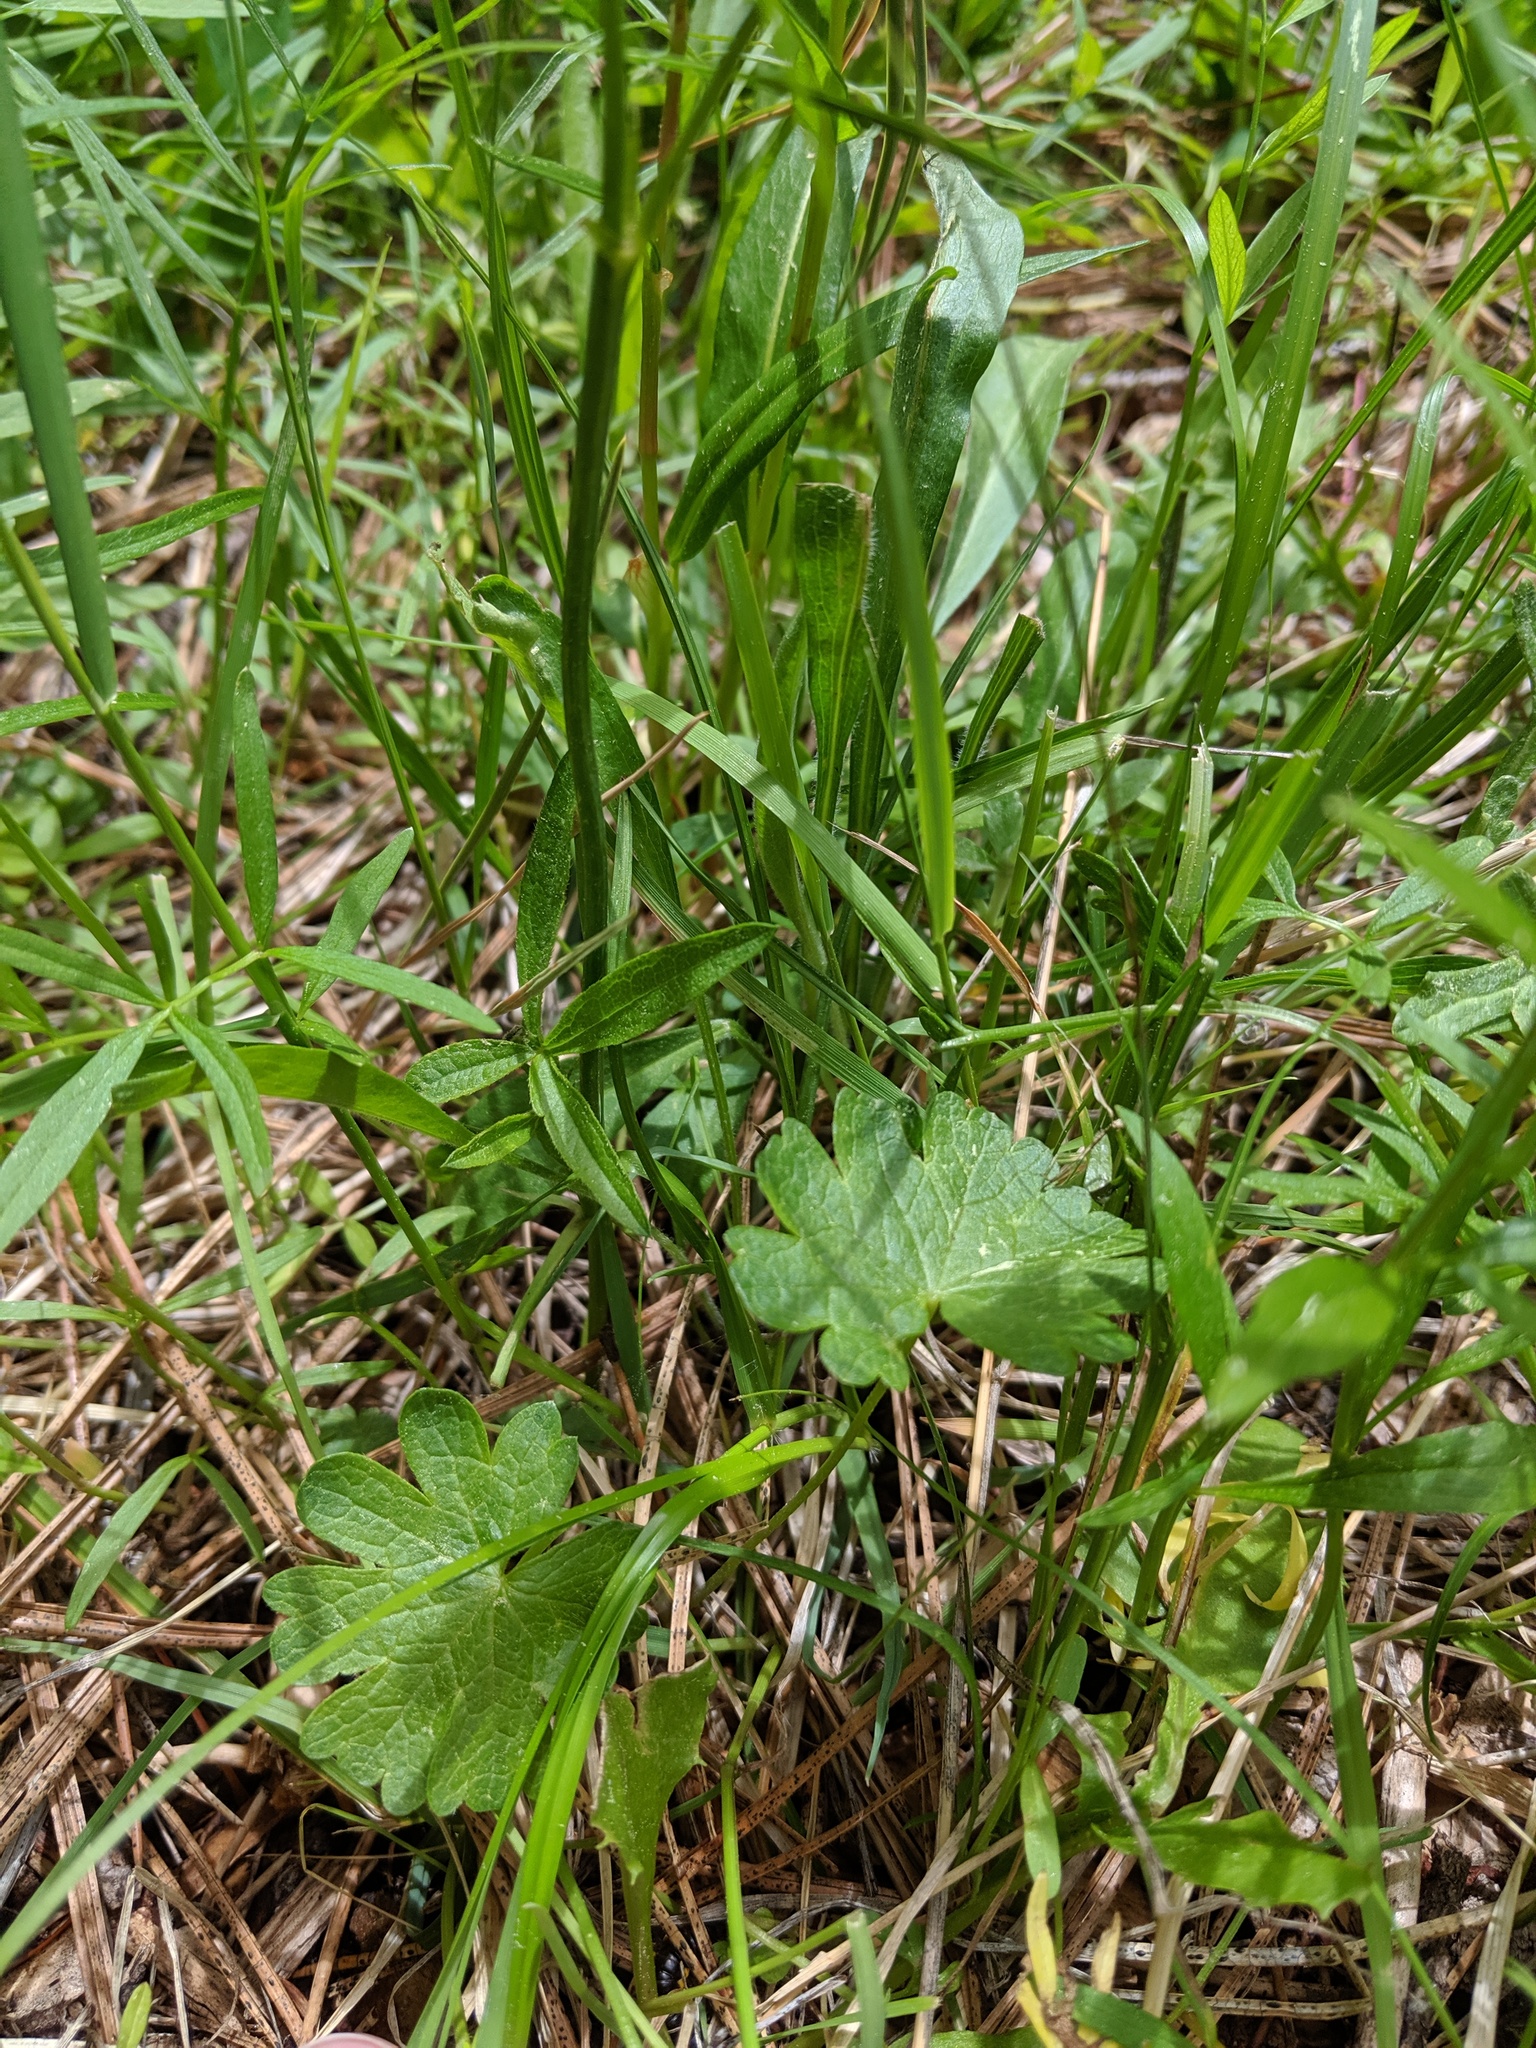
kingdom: Plantae
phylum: Tracheophyta
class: Magnoliopsida
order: Malvales
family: Malvaceae
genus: Sidalcea
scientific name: Sidalcea oregana
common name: Oregon checker-mallow
